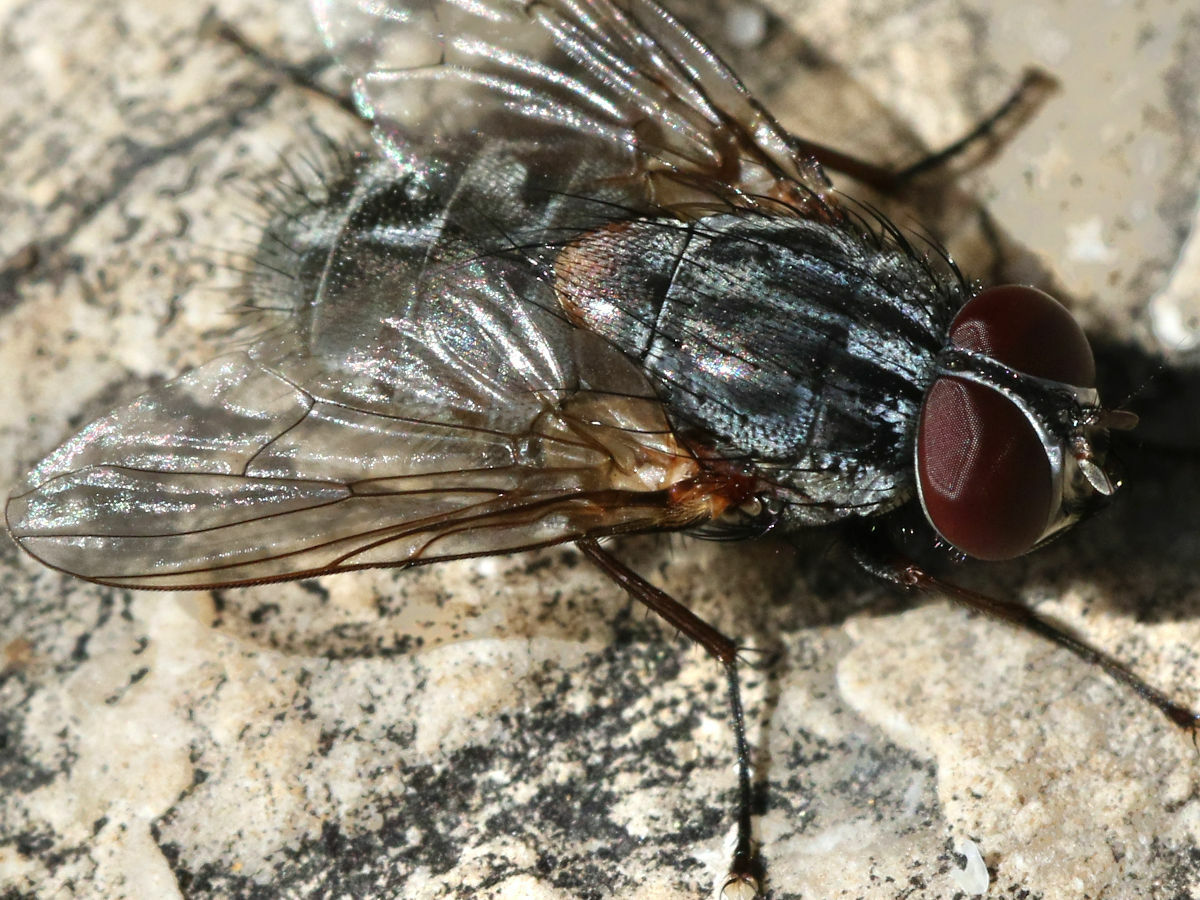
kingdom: Animalia
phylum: Arthropoda
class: Insecta
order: Diptera
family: Muscidae
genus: Muscina
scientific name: Muscina stabulans
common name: False stable fly
